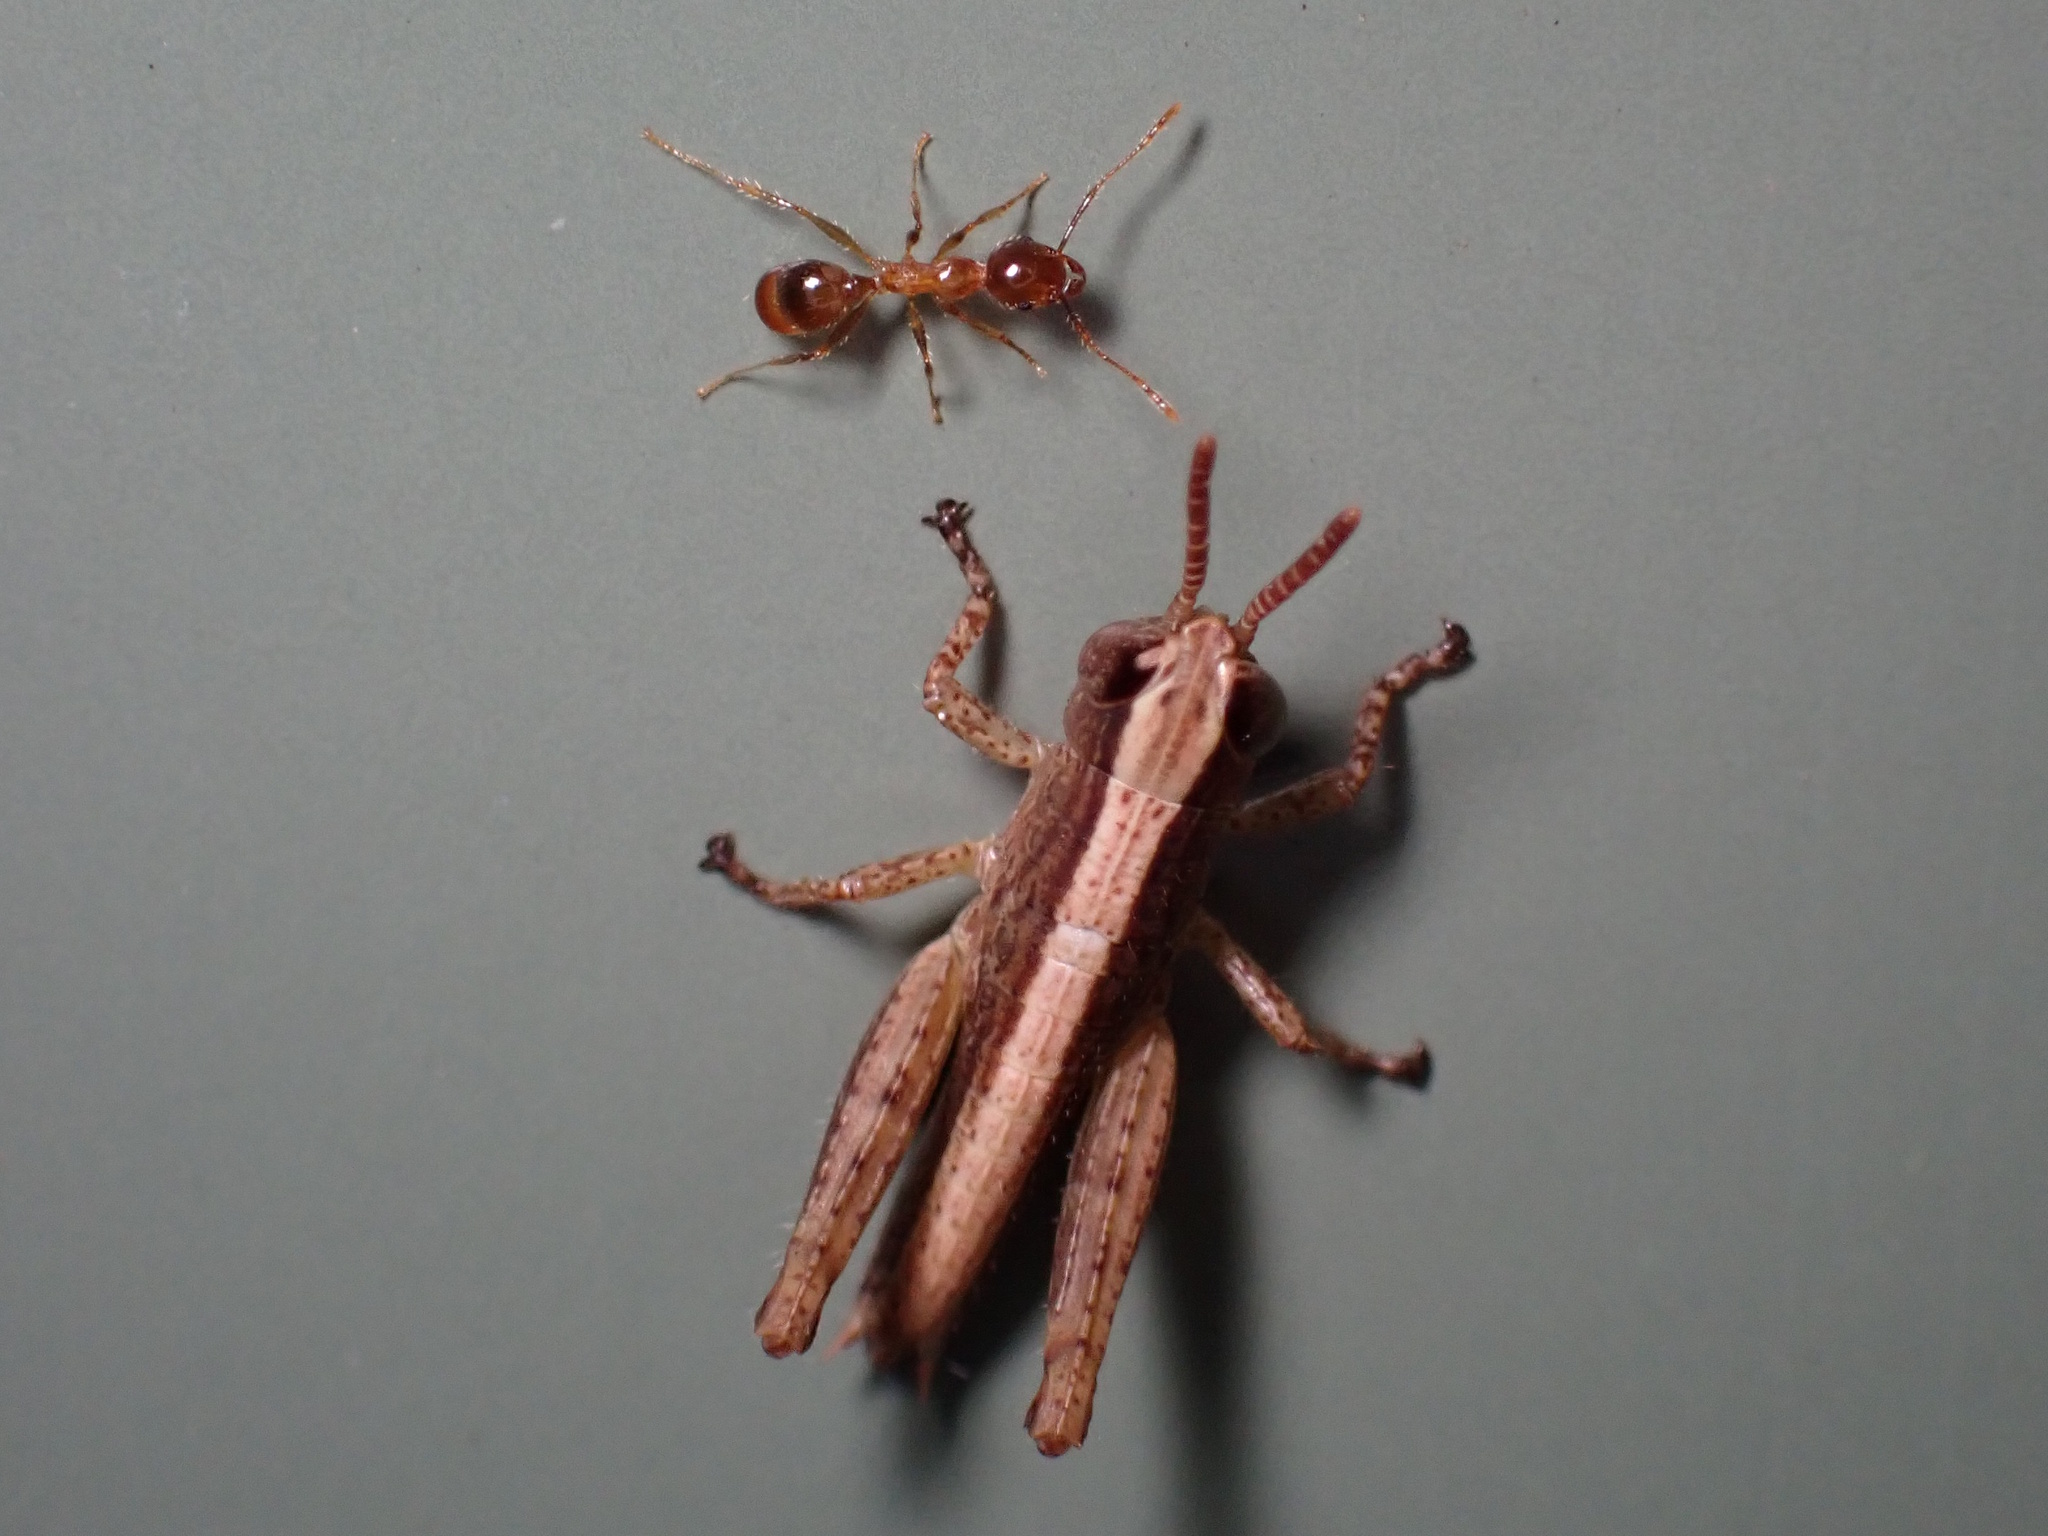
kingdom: Animalia
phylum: Arthropoda
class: Insecta
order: Hymenoptera
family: Formicidae
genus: Pheidole
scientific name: Pheidole megacephala
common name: Bigheaded ant
